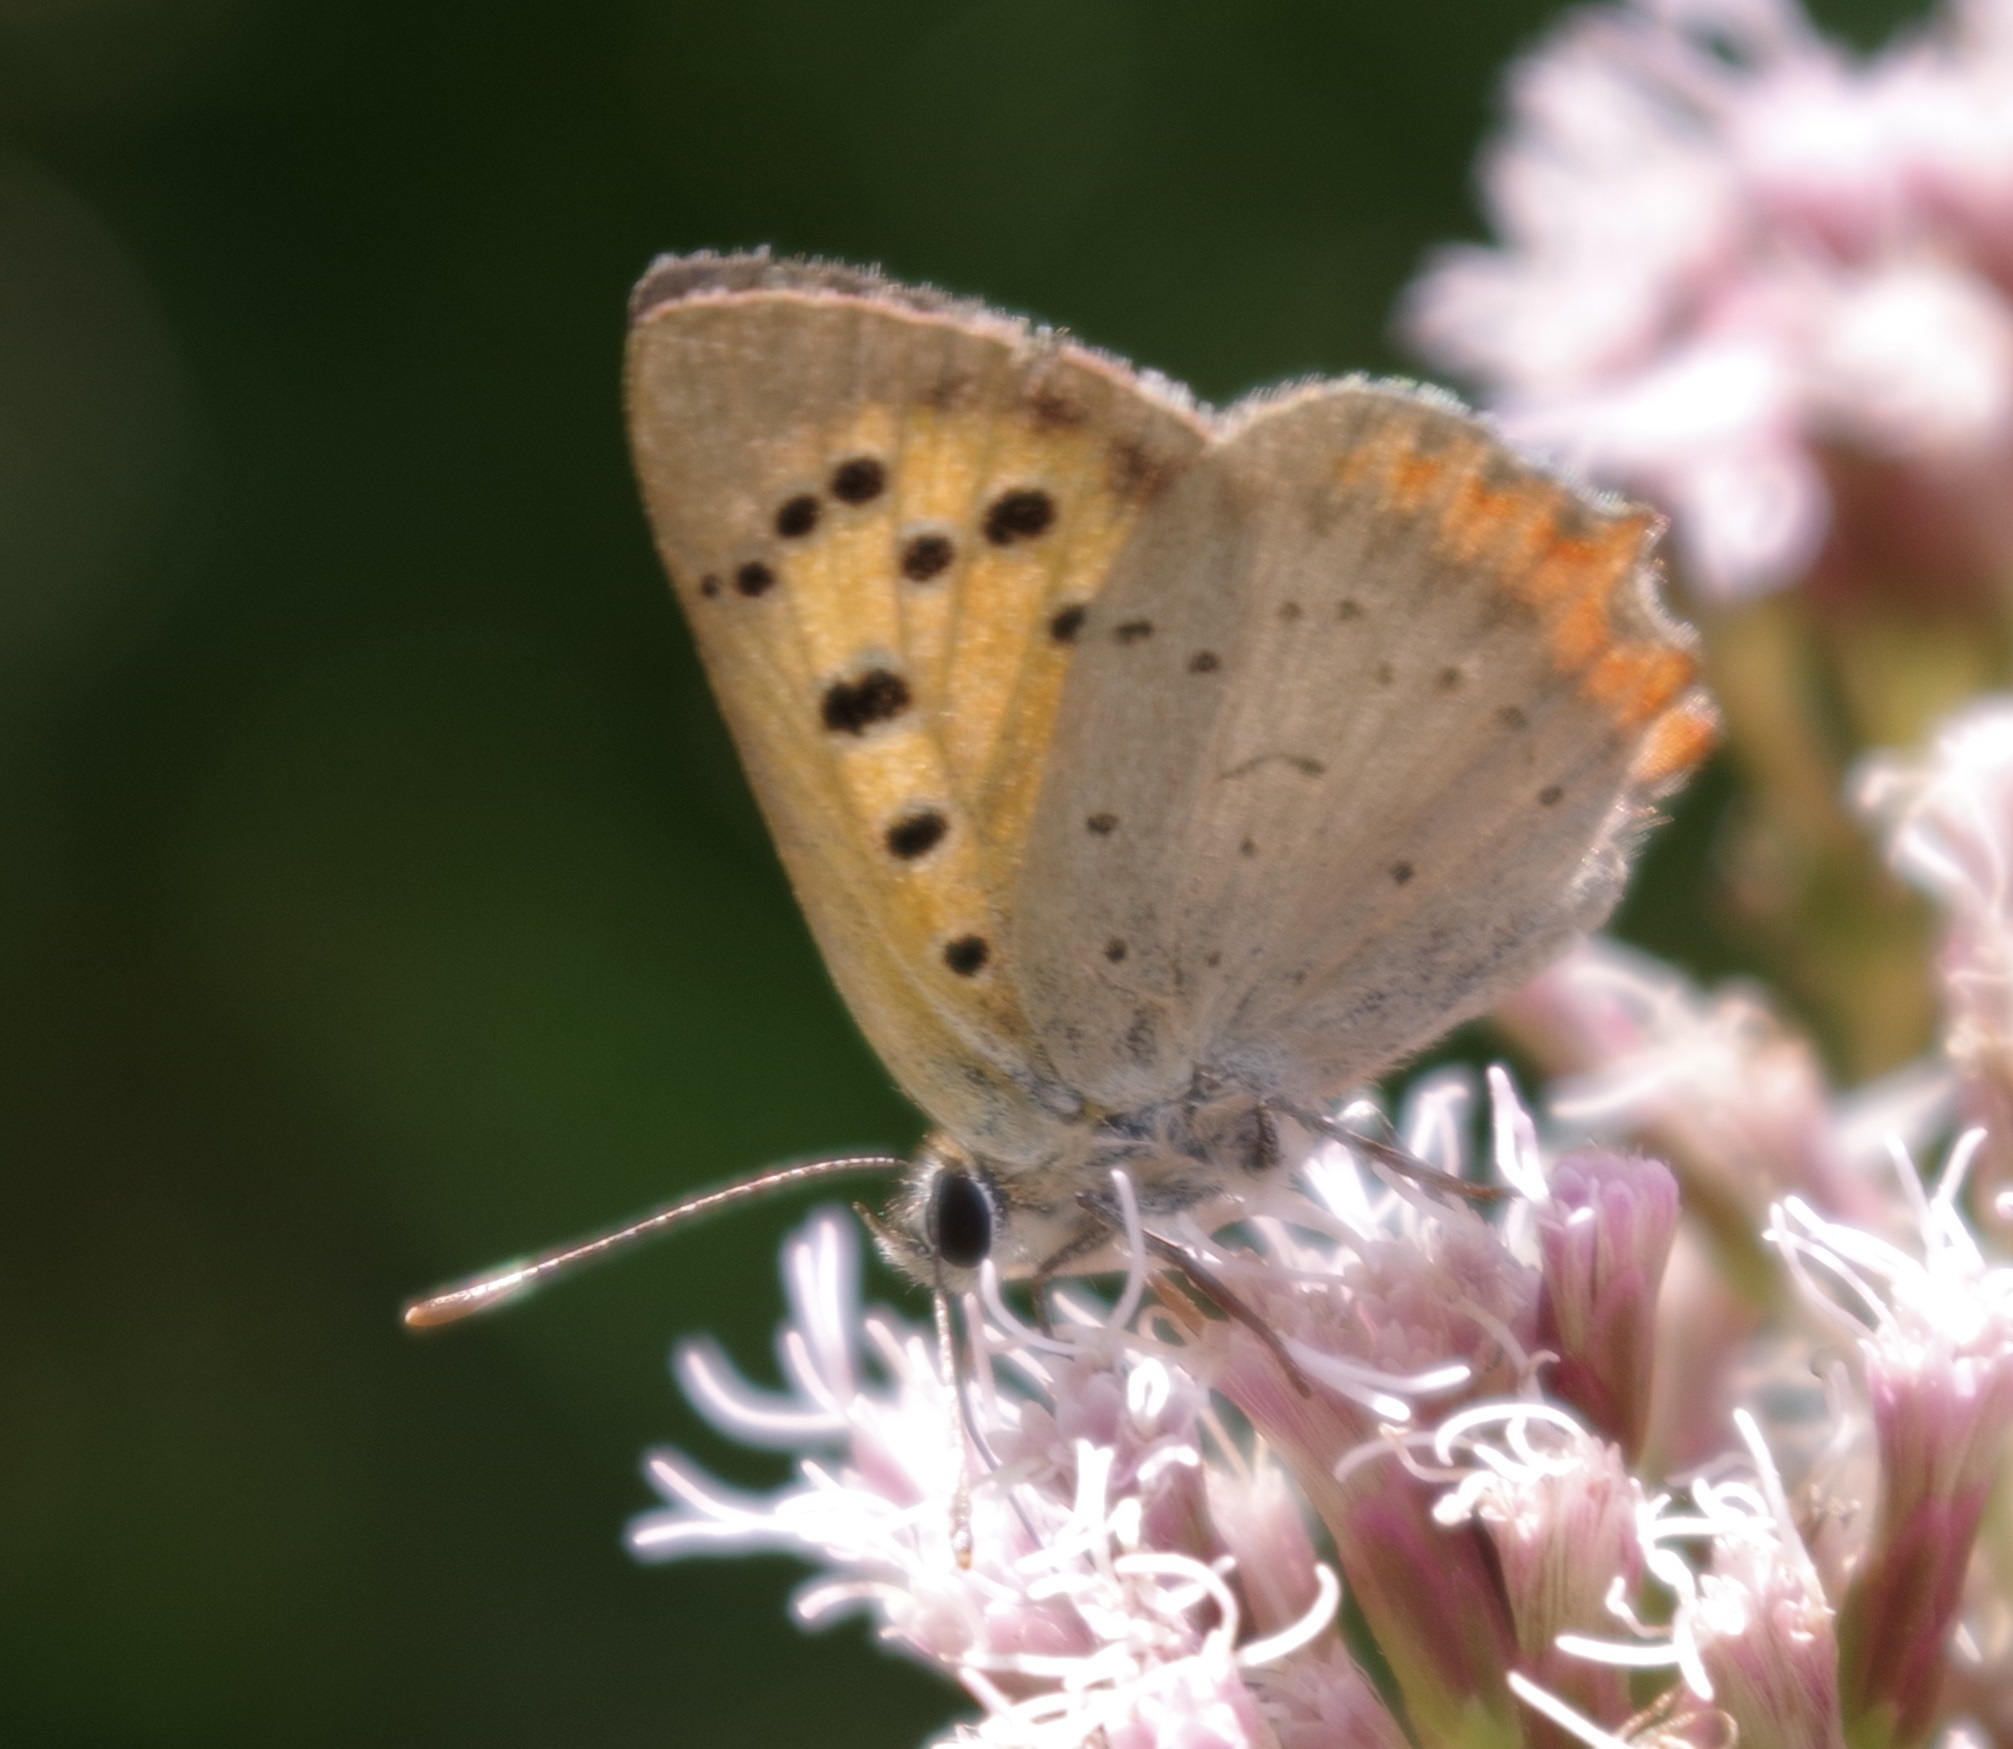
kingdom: Animalia
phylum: Arthropoda
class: Insecta
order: Lepidoptera
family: Lycaenidae
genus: Lycaena
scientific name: Lycaena phlaeas
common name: Small copper
